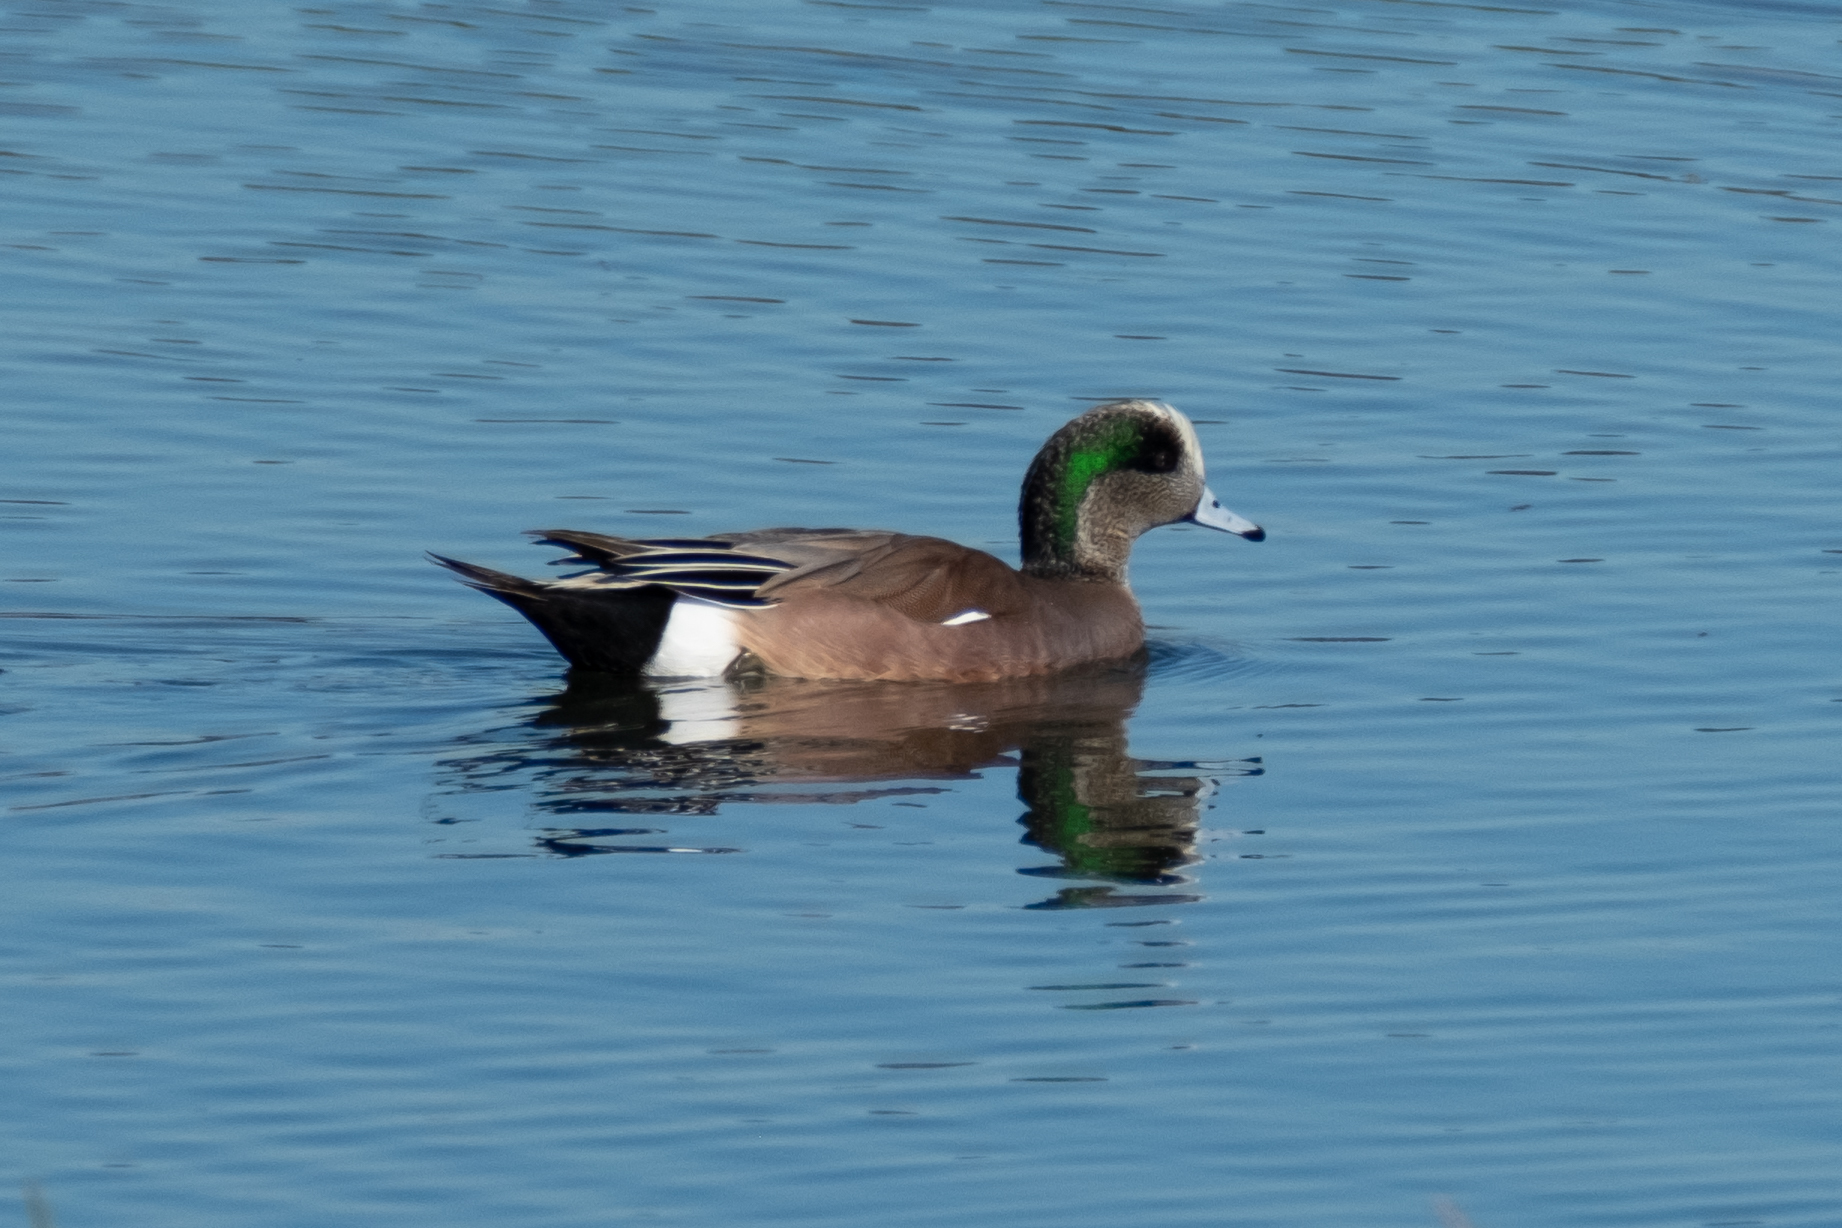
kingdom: Animalia
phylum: Chordata
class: Aves
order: Anseriformes
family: Anatidae
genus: Mareca
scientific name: Mareca americana
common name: American wigeon
